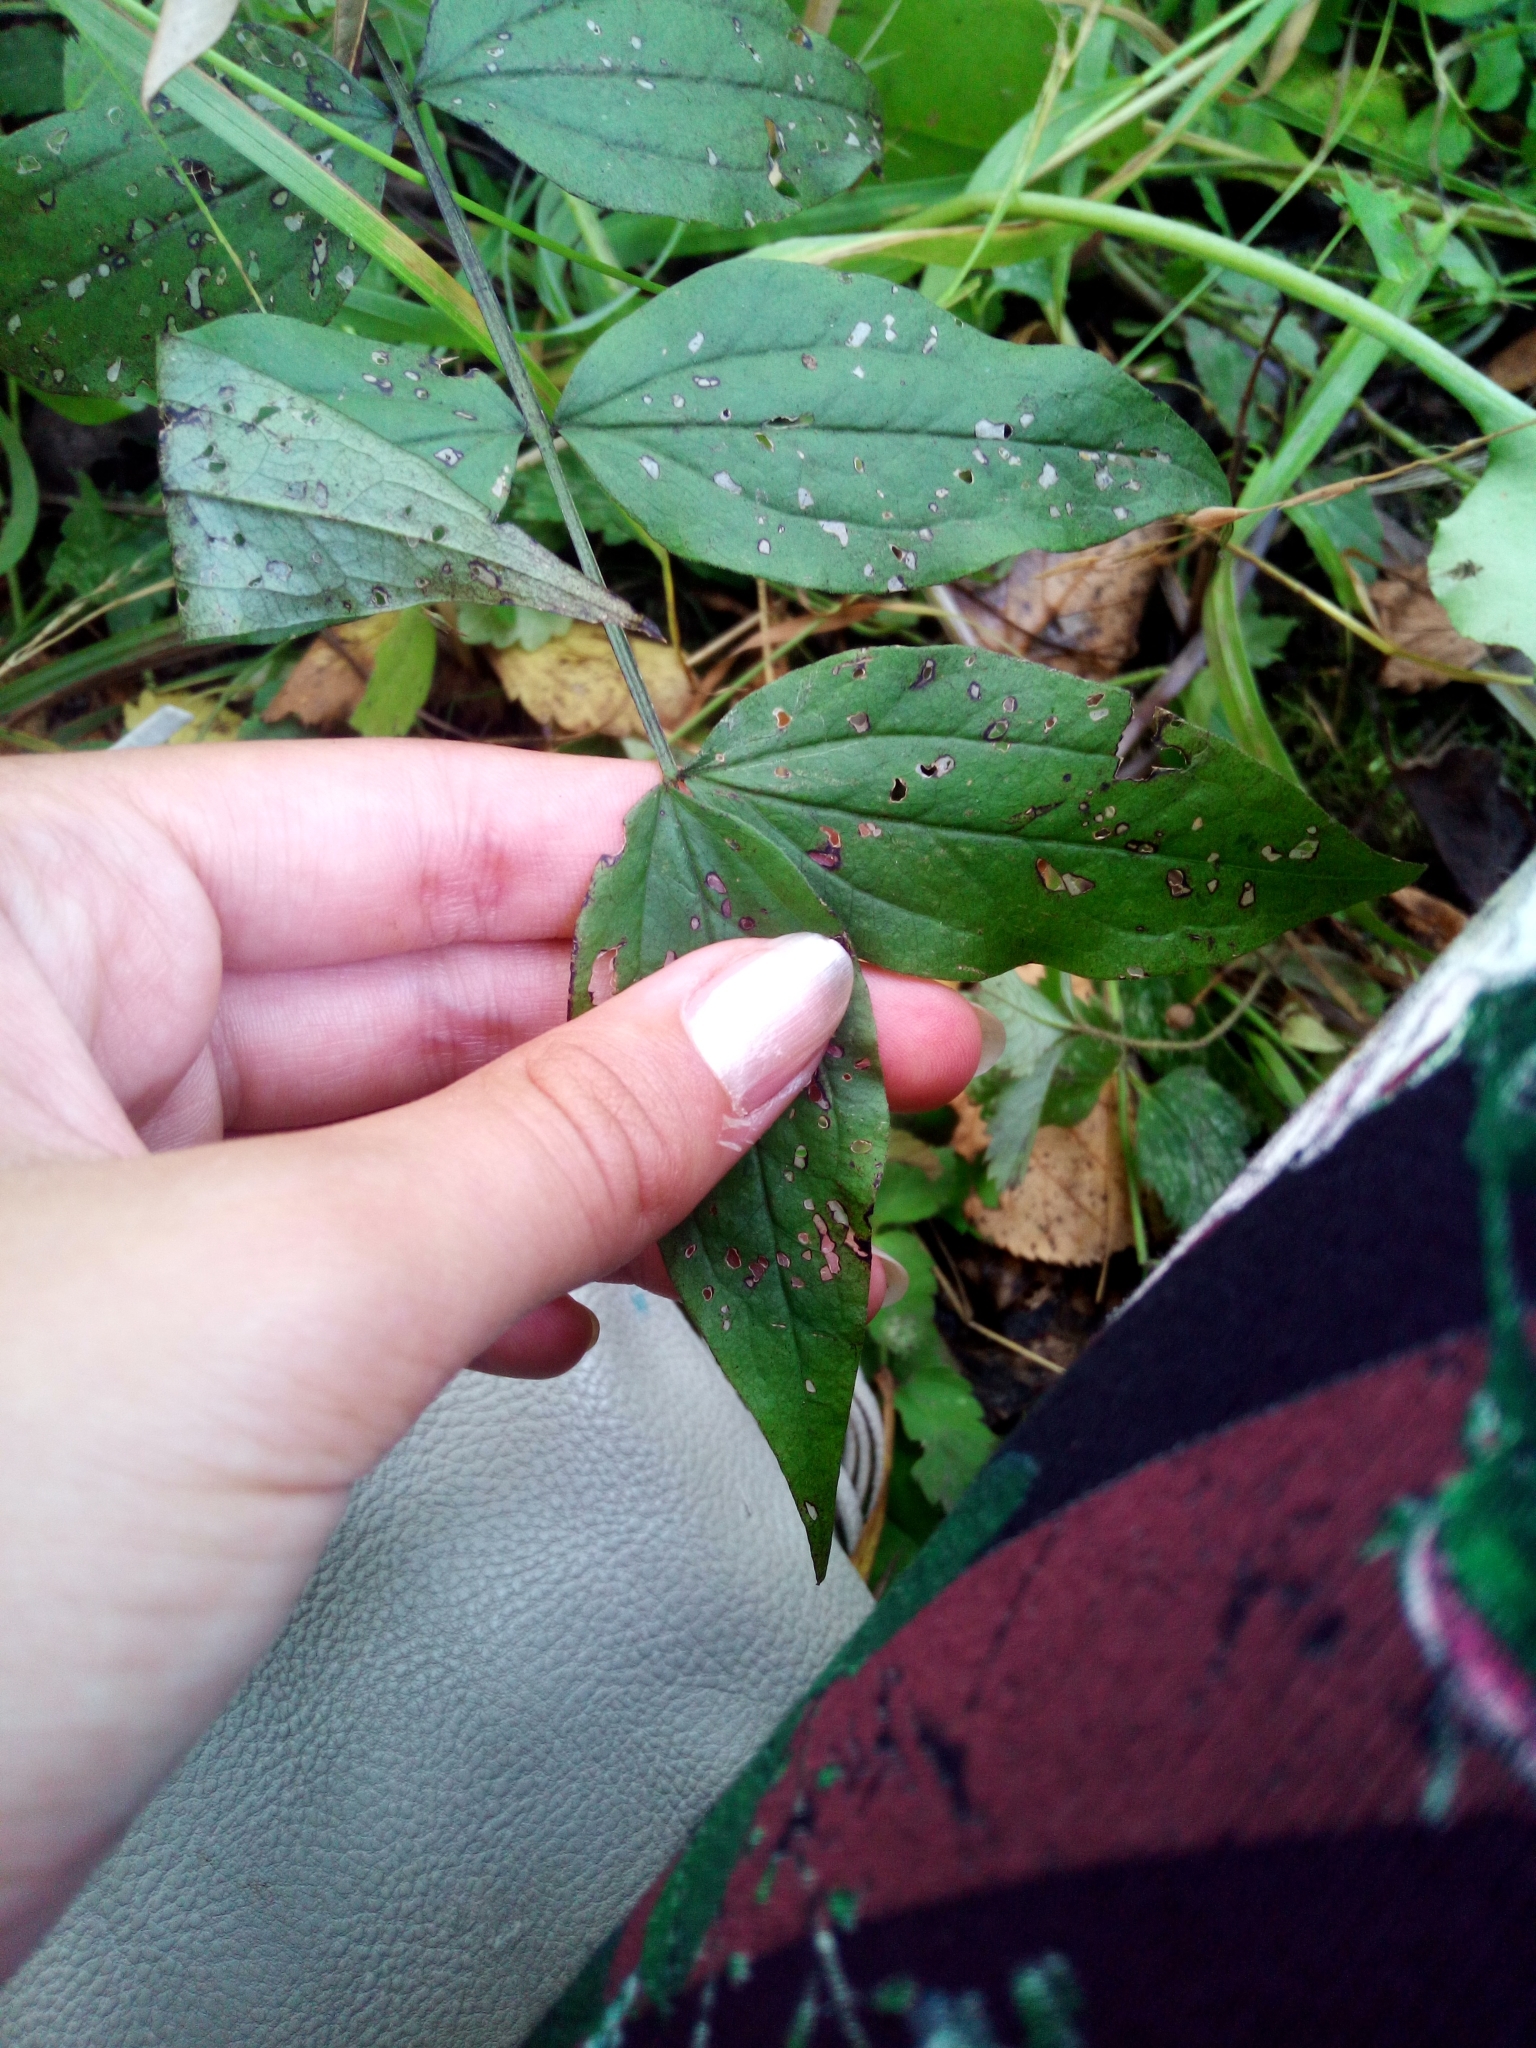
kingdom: Plantae
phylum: Tracheophyta
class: Magnoliopsida
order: Fabales
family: Fabaceae
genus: Lathyrus
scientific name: Lathyrus vernus
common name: Spring pea
